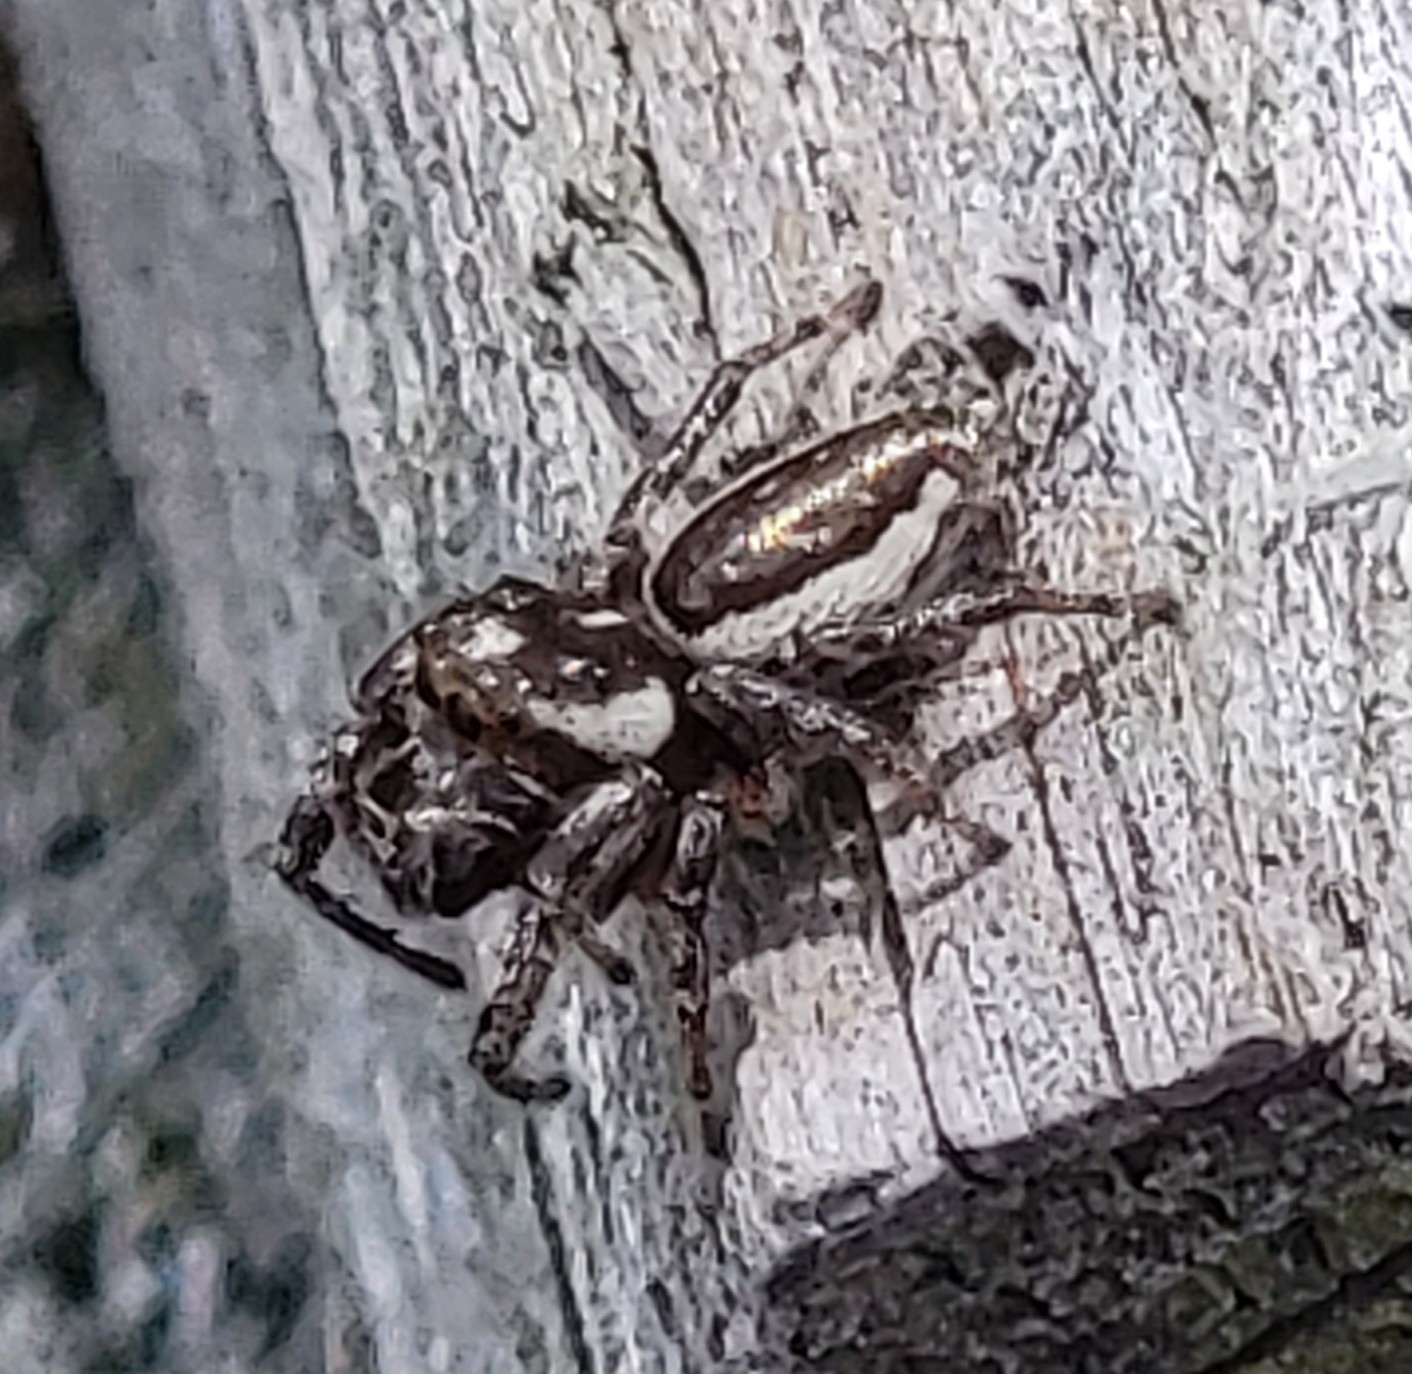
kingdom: Animalia
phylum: Arthropoda
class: Arachnida
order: Araneae
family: Salticidae
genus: Eris
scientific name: Eris militaris
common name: Bronze jumper
